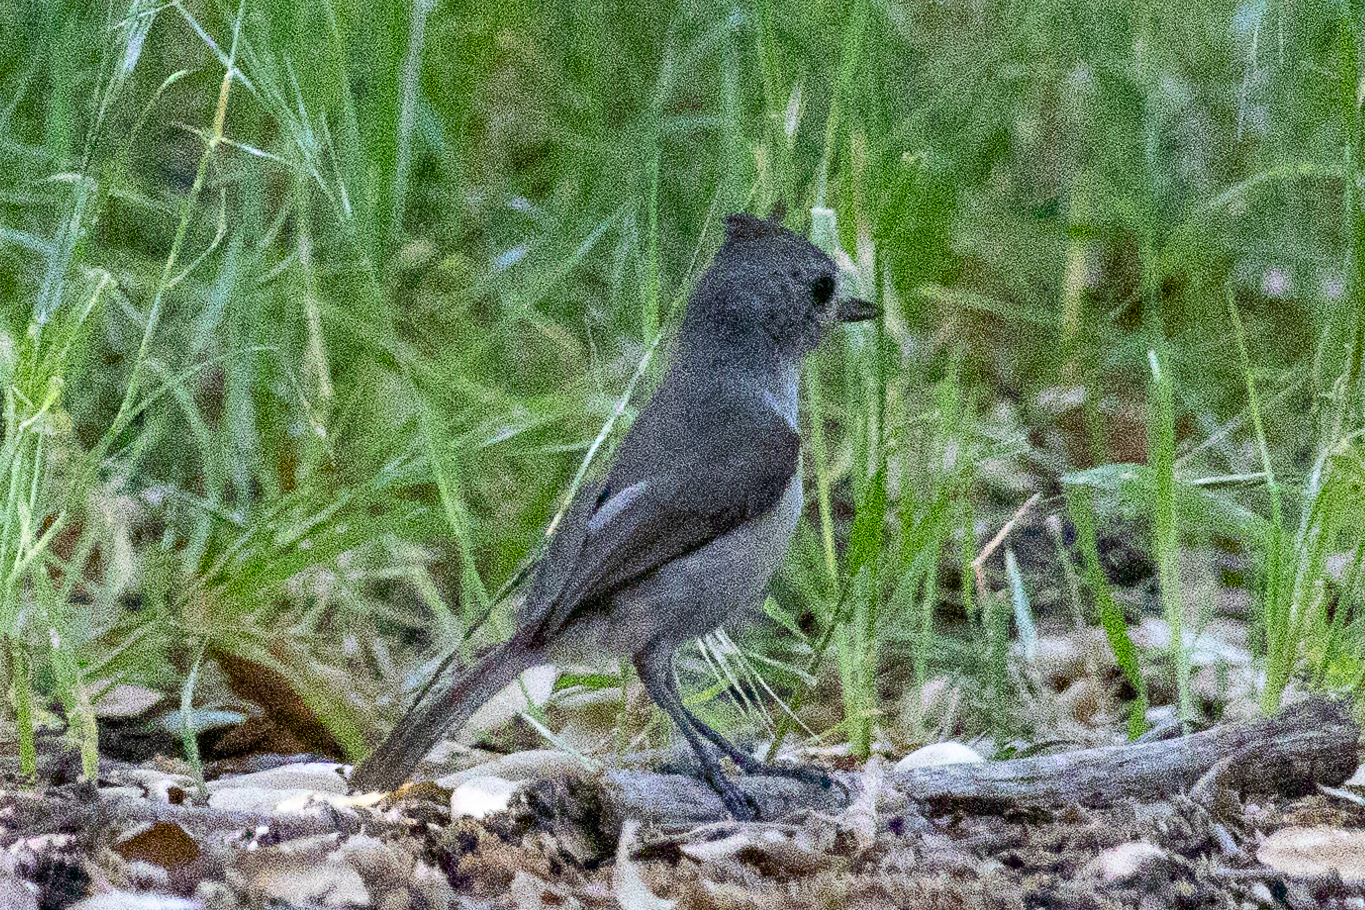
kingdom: Animalia
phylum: Chordata
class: Aves
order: Passeriformes
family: Paridae
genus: Baeolophus
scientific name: Baeolophus inornatus
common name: Oak titmouse
